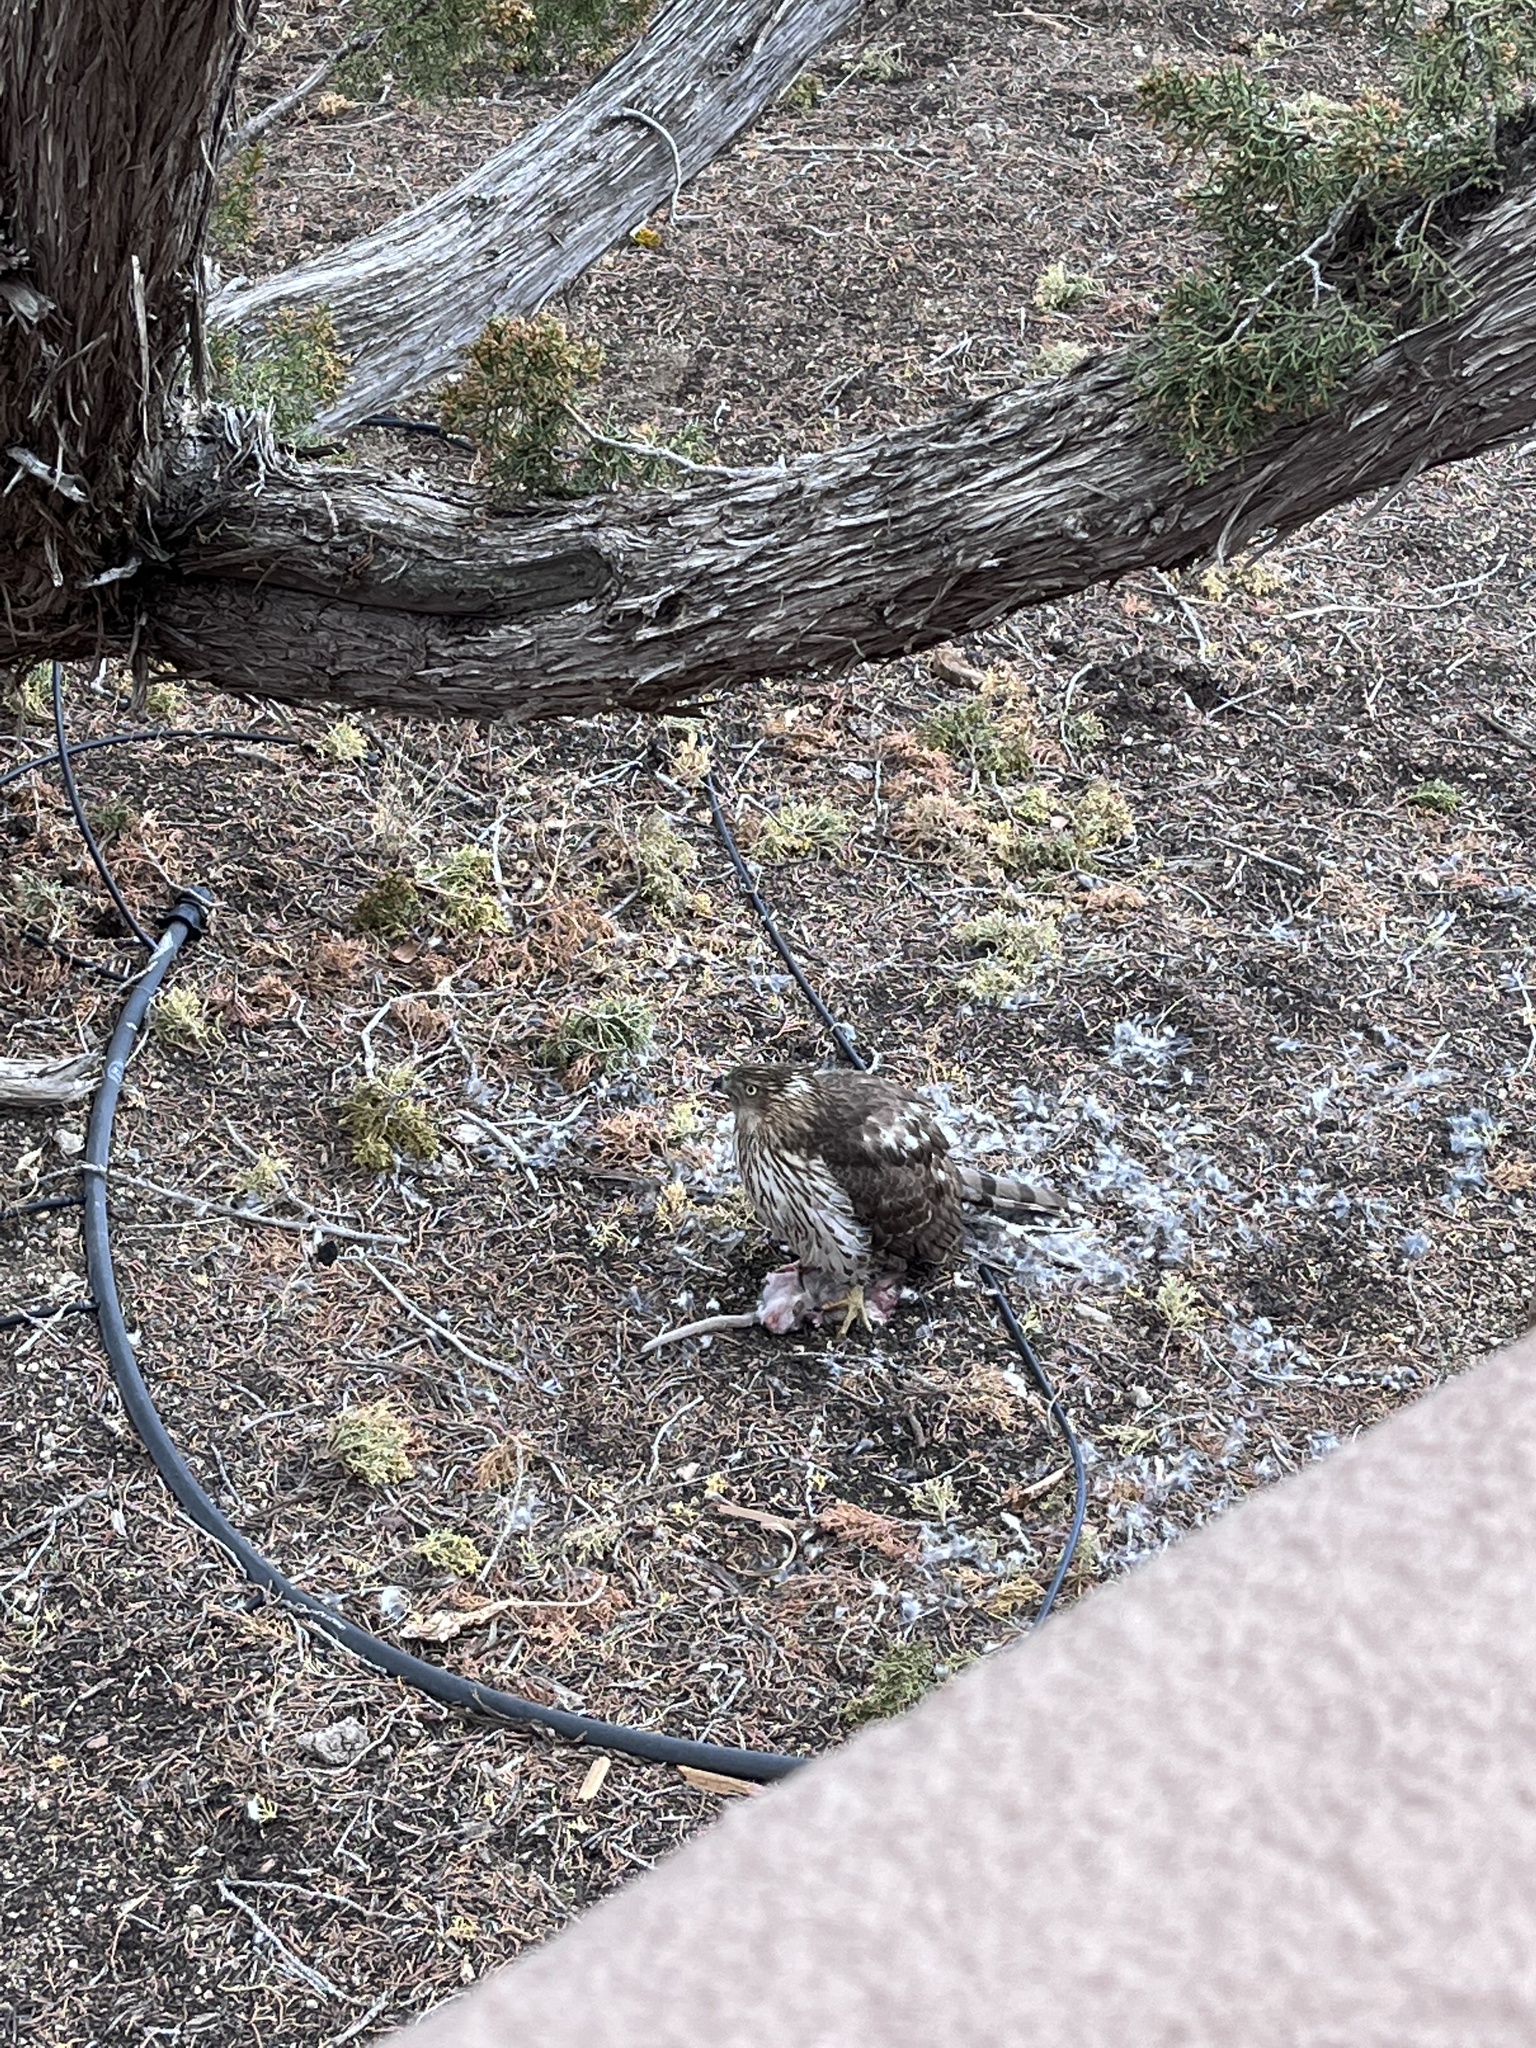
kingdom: Animalia
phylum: Chordata
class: Aves
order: Accipitriformes
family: Accipitridae
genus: Accipiter
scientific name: Accipiter cooperii
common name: Cooper's hawk
